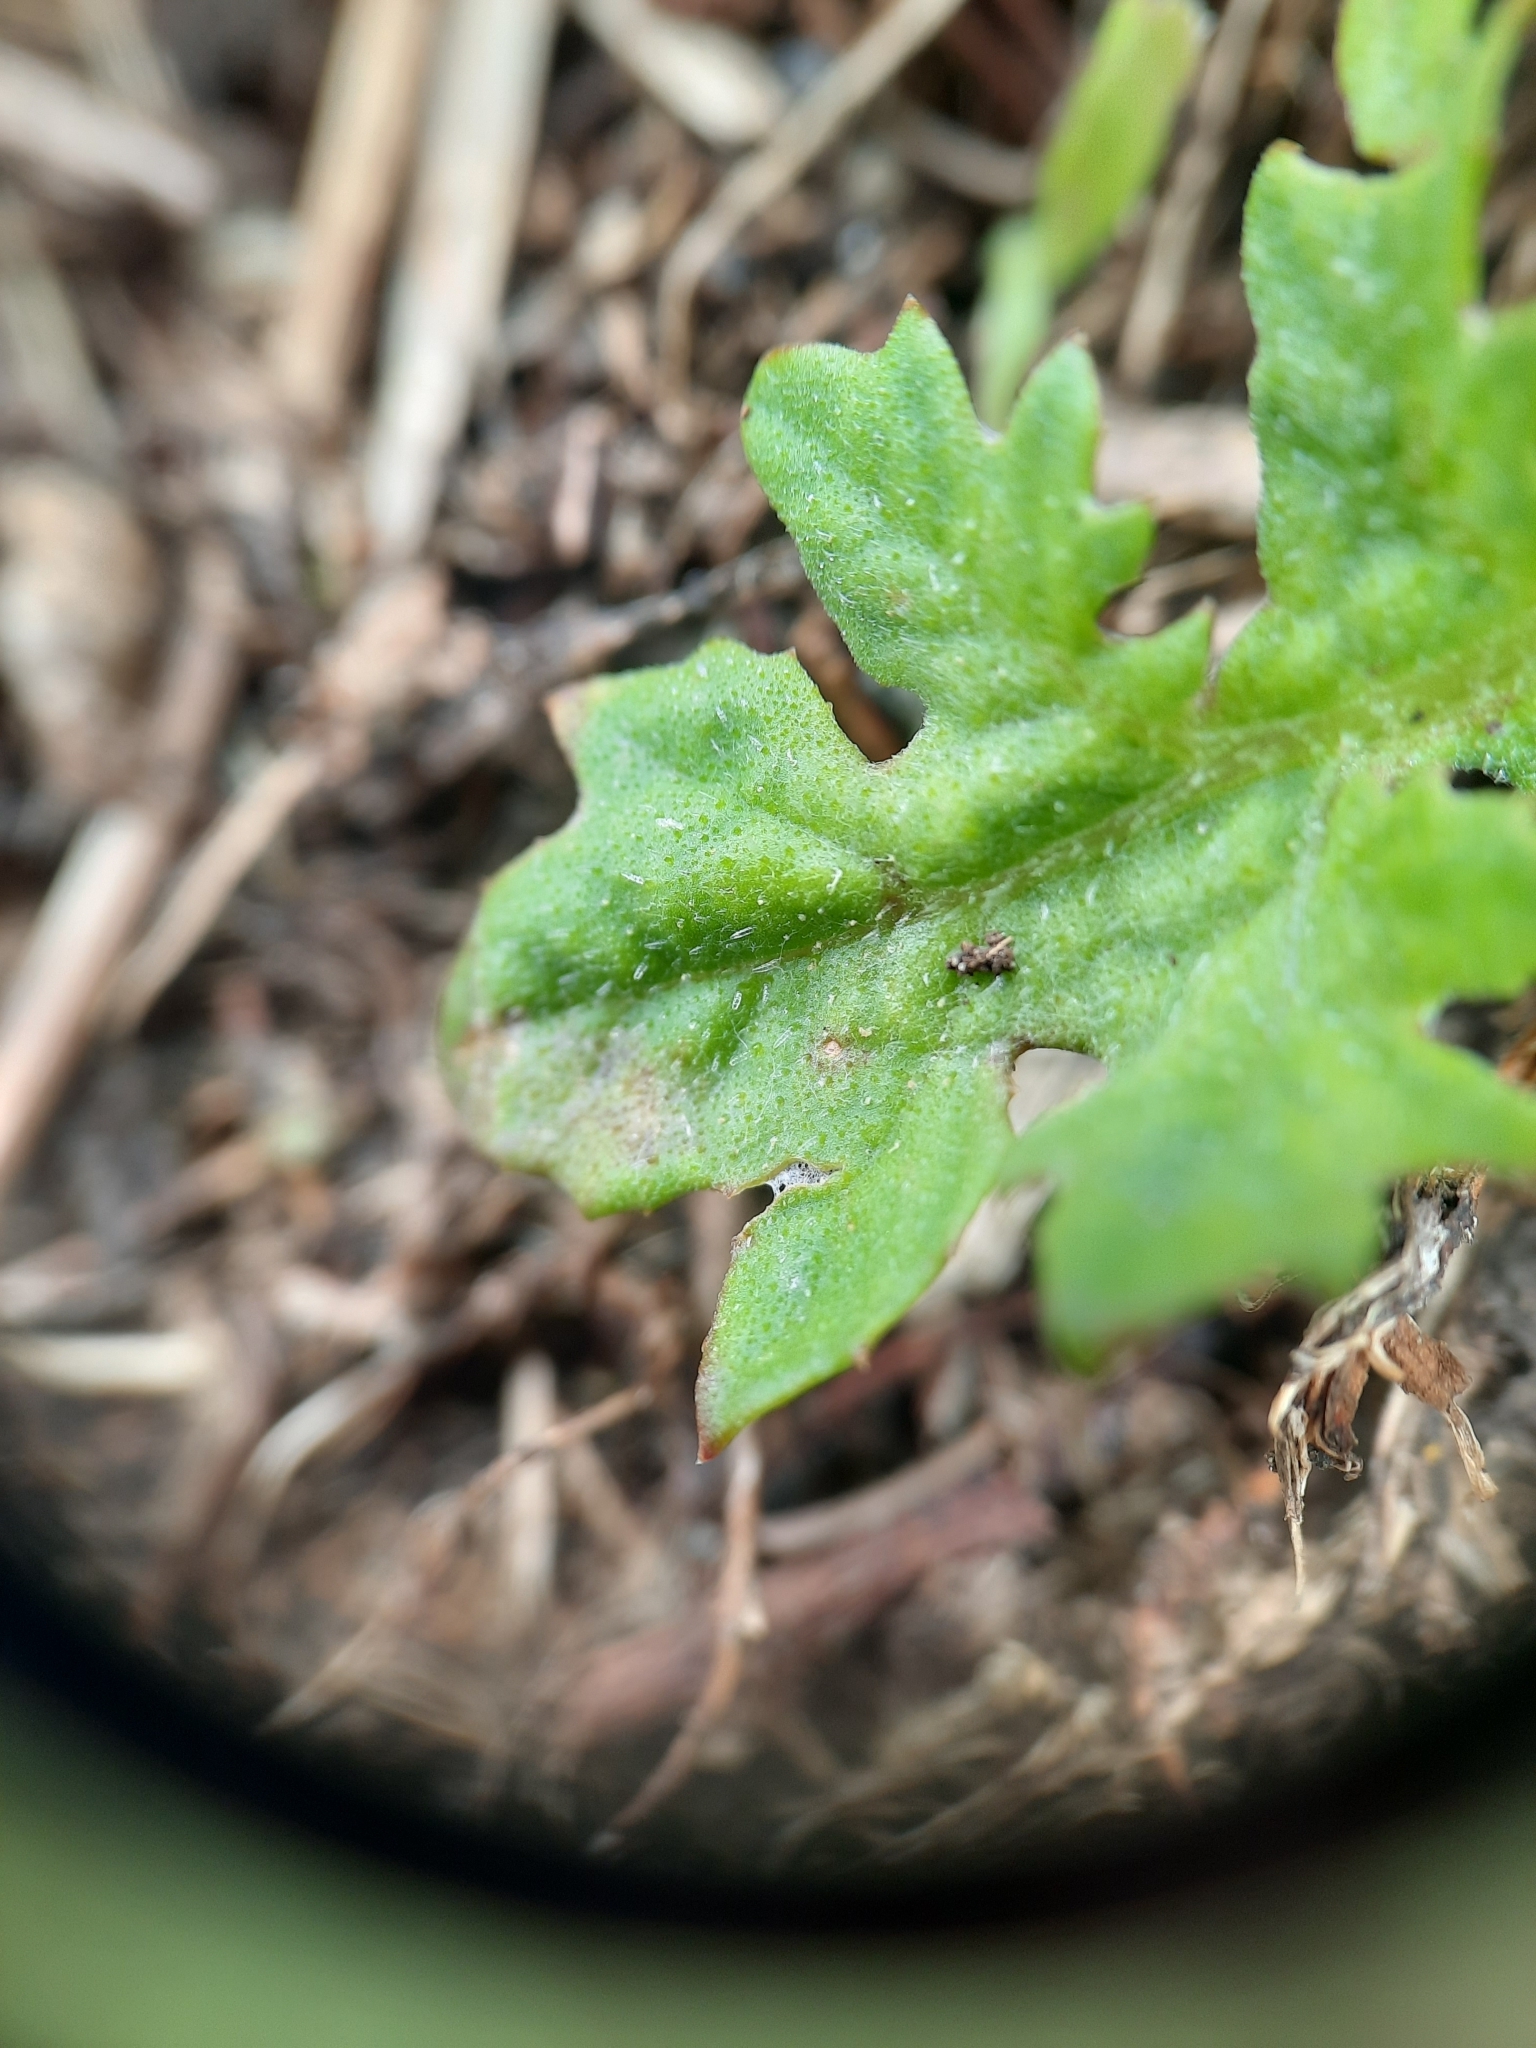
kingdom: Plantae
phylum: Tracheophyta
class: Magnoliopsida
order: Asterales
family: Asteraceae
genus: Arctotheca
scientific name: Arctotheca calendula
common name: Capeweed
